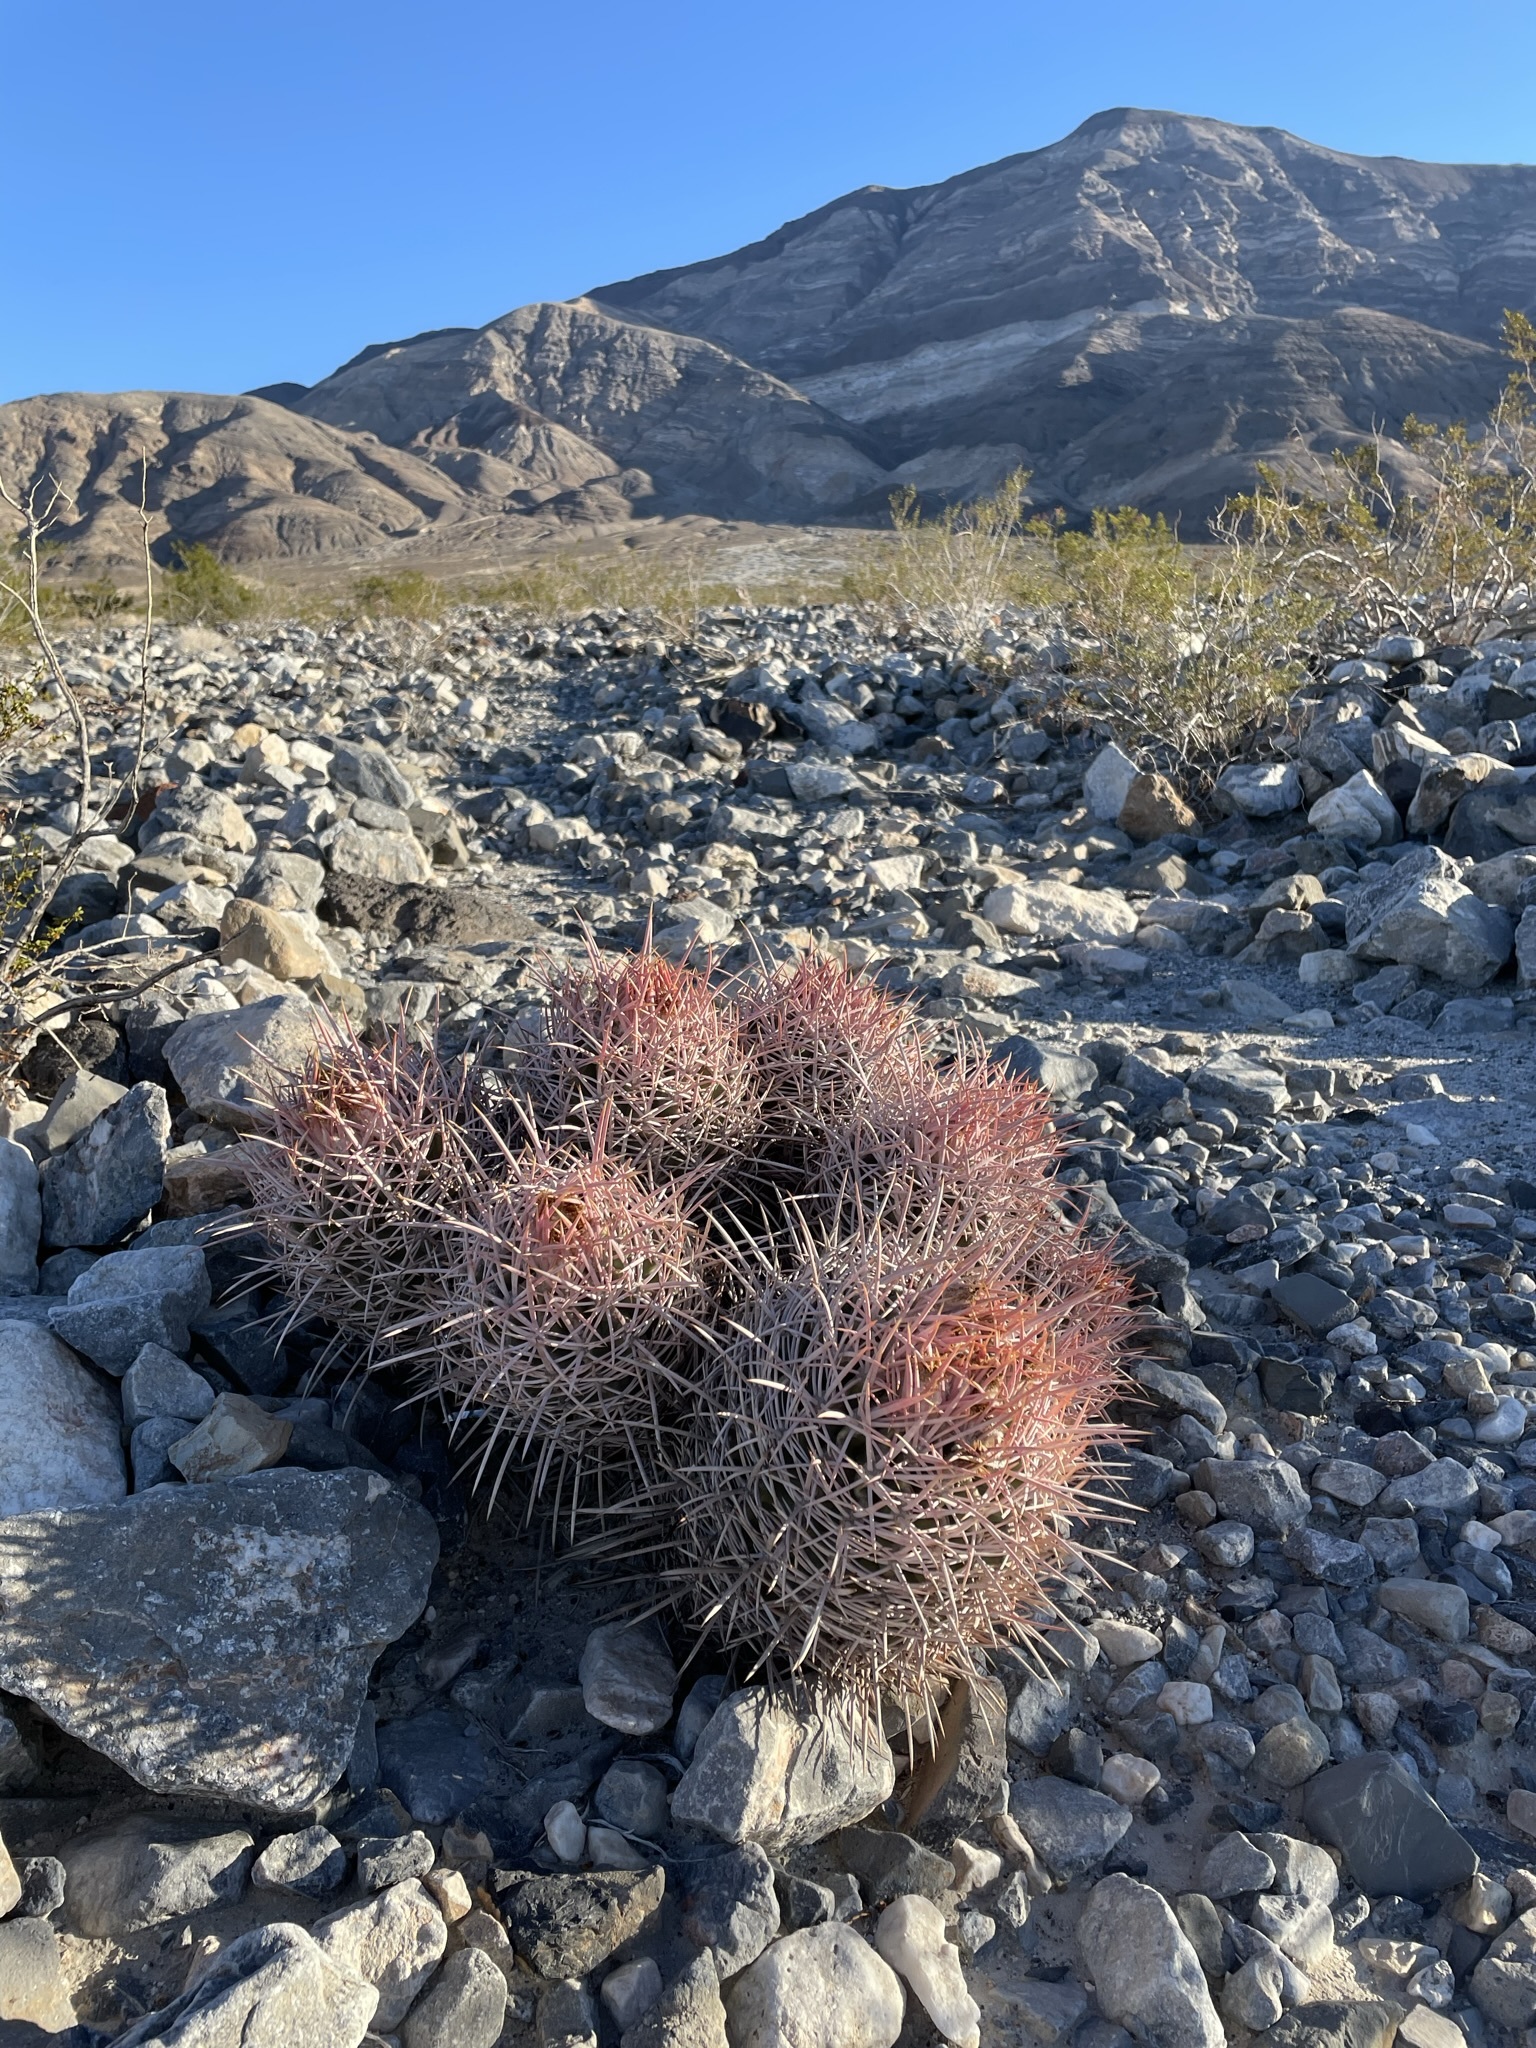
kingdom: Plantae
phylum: Tracheophyta
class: Magnoliopsida
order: Caryophyllales
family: Cactaceae
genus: Echinocactus
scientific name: Echinocactus polycephalus
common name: Cottontop cactus
